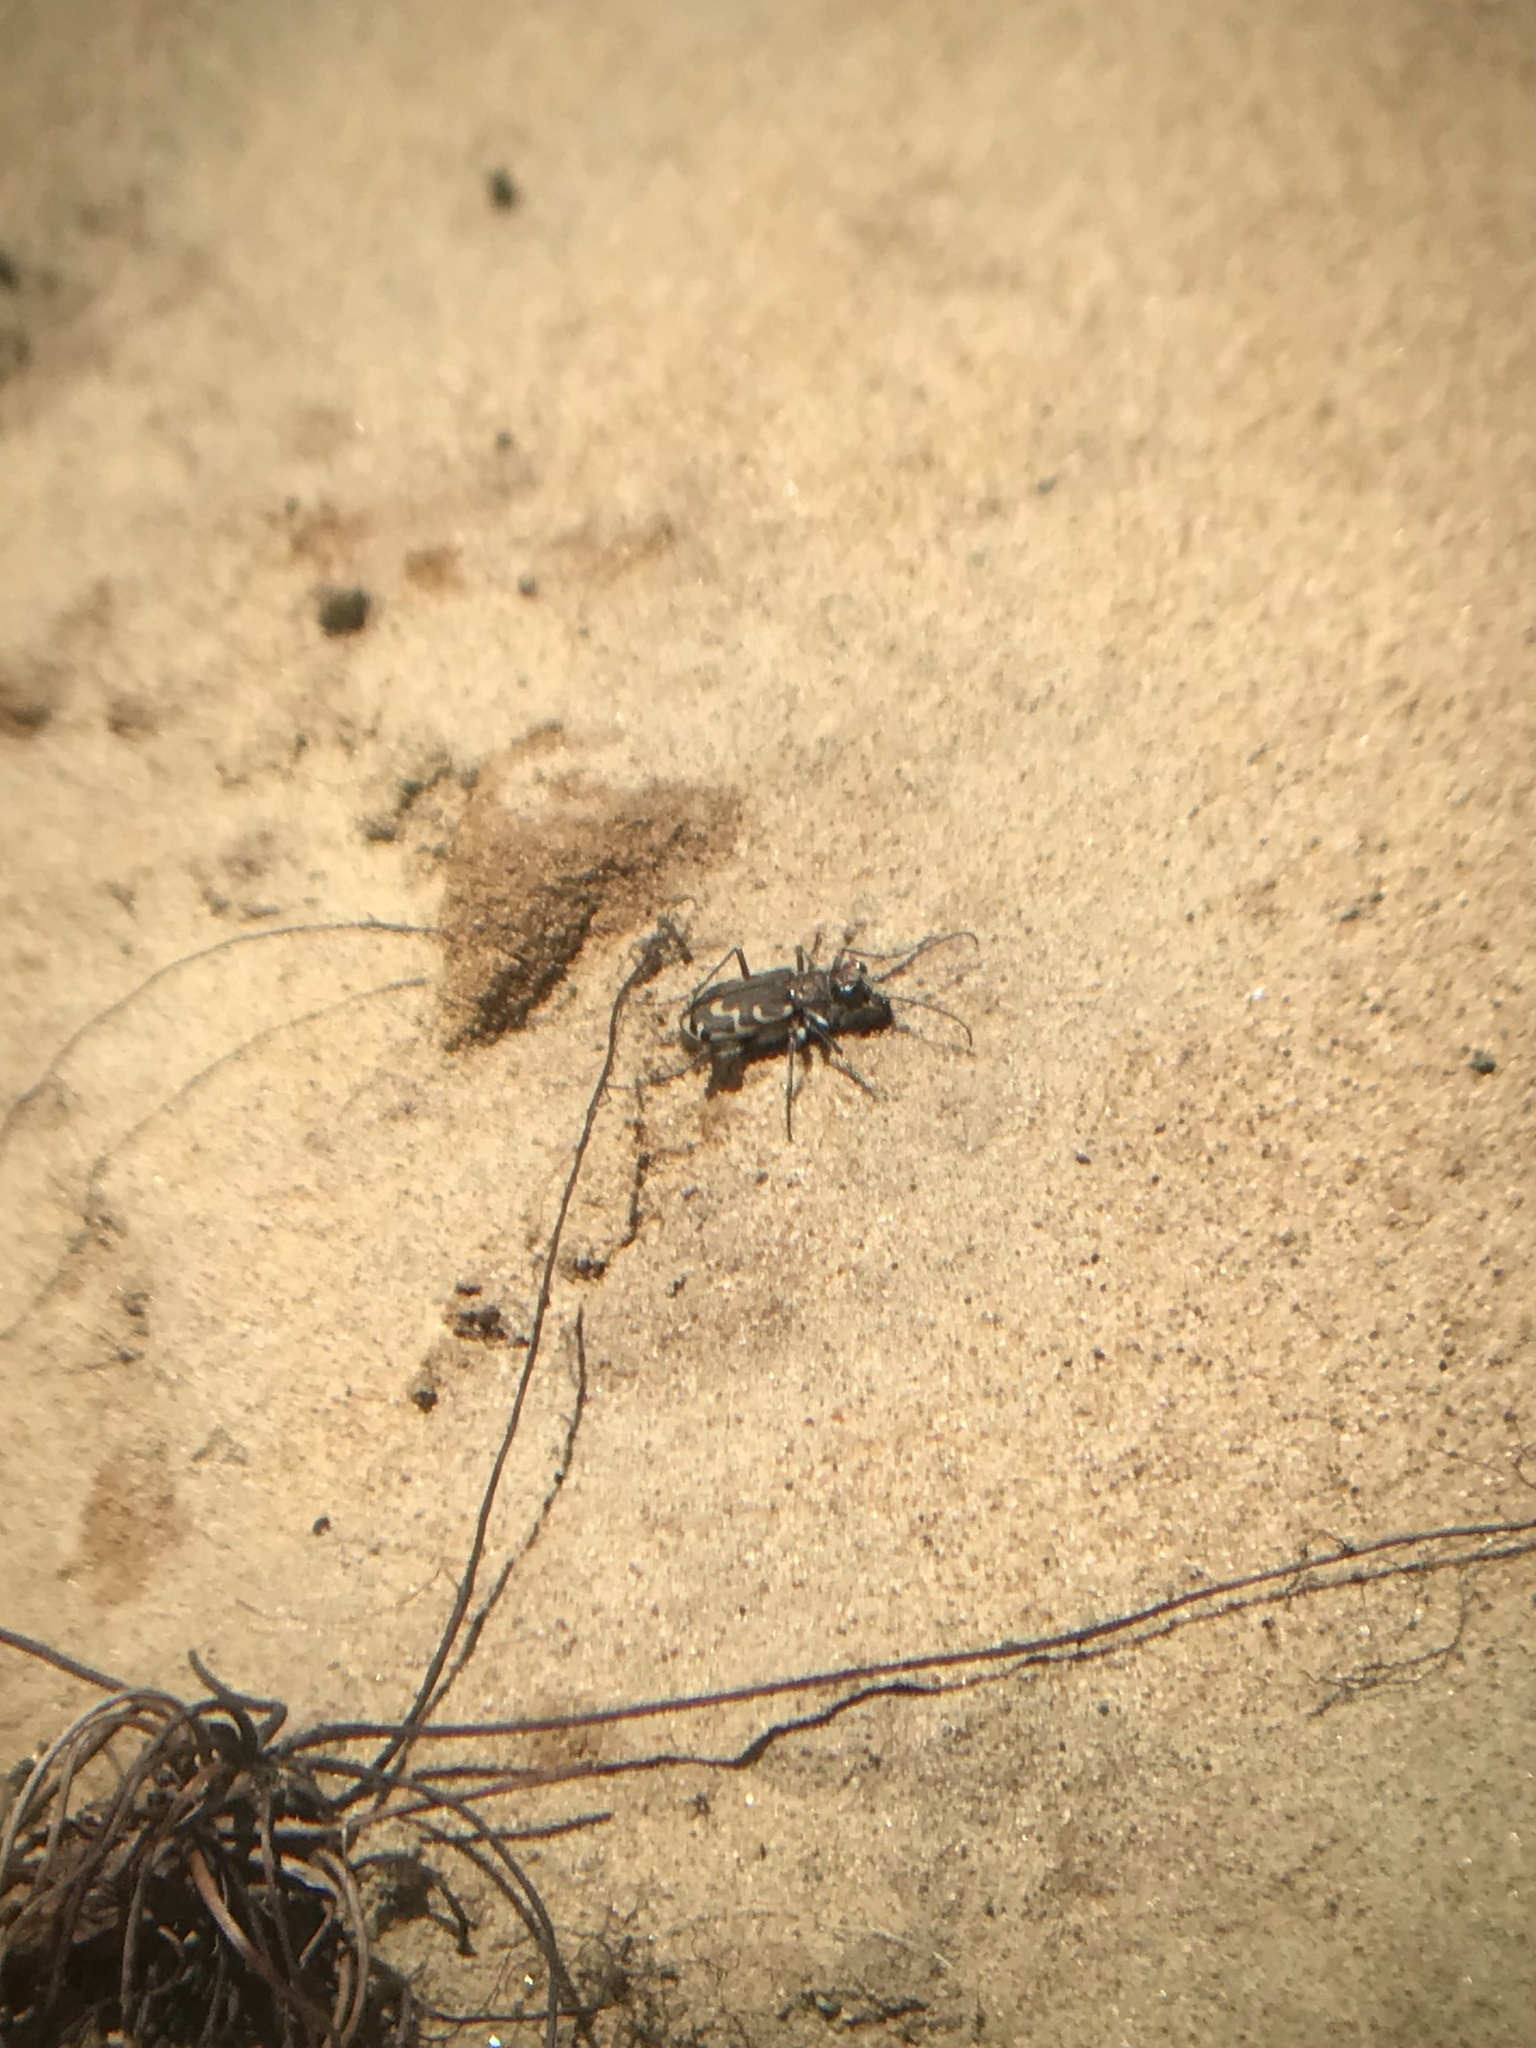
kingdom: Animalia
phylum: Arthropoda
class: Insecta
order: Coleoptera
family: Carabidae
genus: Cicindela
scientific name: Cicindela repanda
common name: Bronzed tiger beetle
